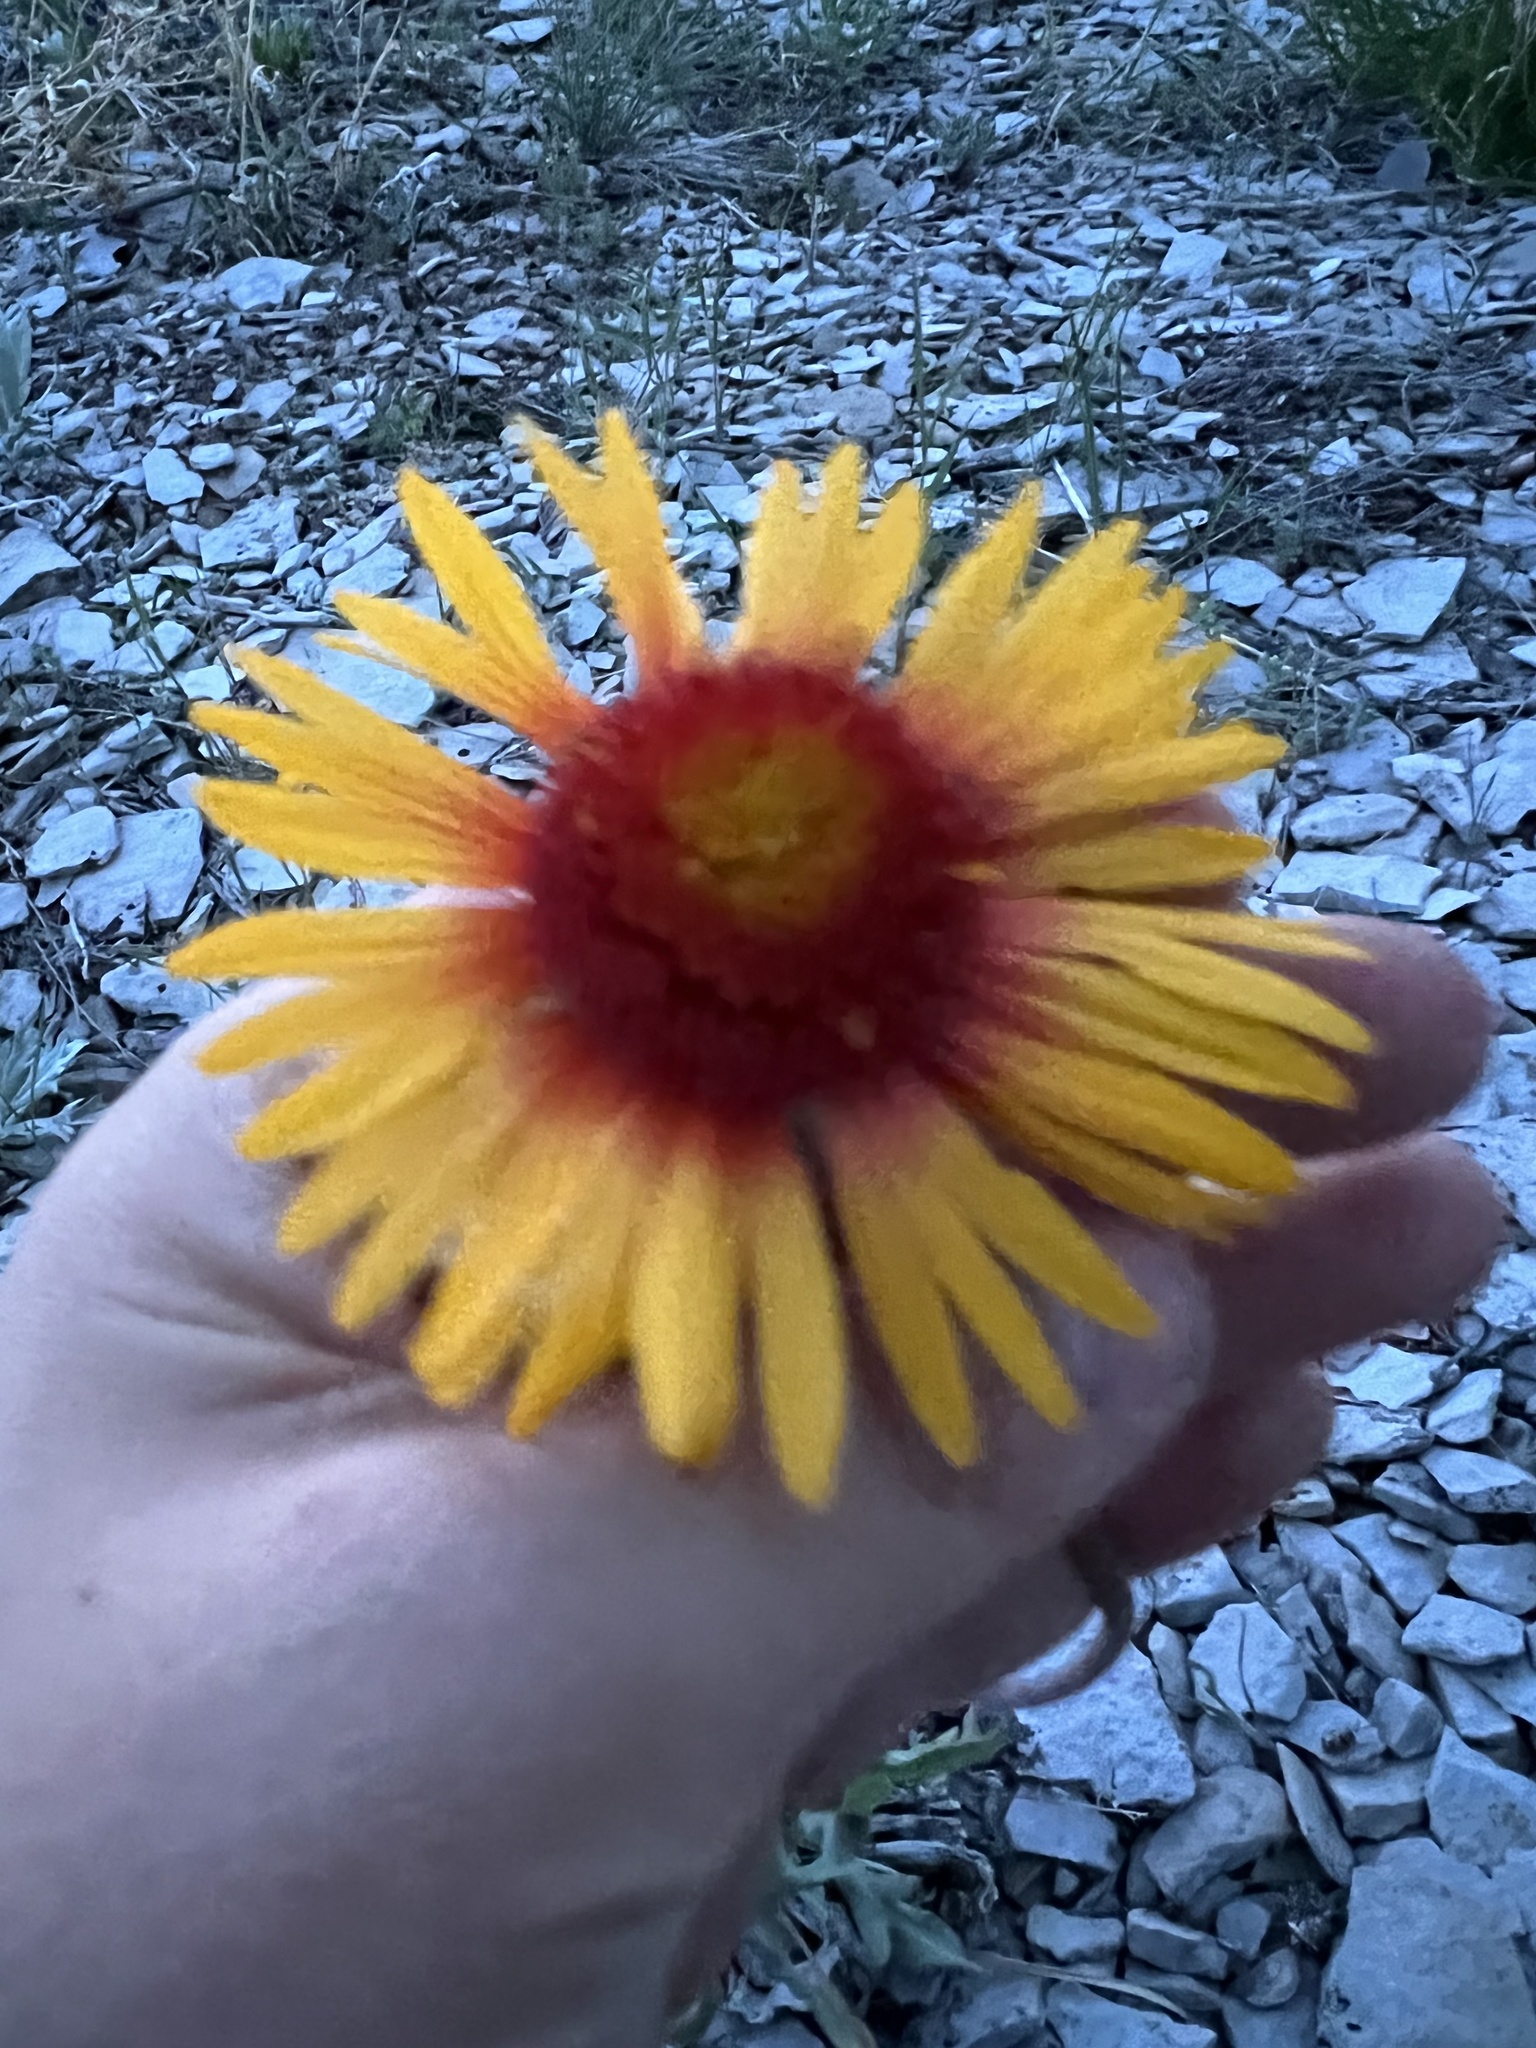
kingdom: Plantae
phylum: Tracheophyta
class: Magnoliopsida
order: Asterales
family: Asteraceae
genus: Gaillardia
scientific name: Gaillardia aristata
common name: Blanket-flower
